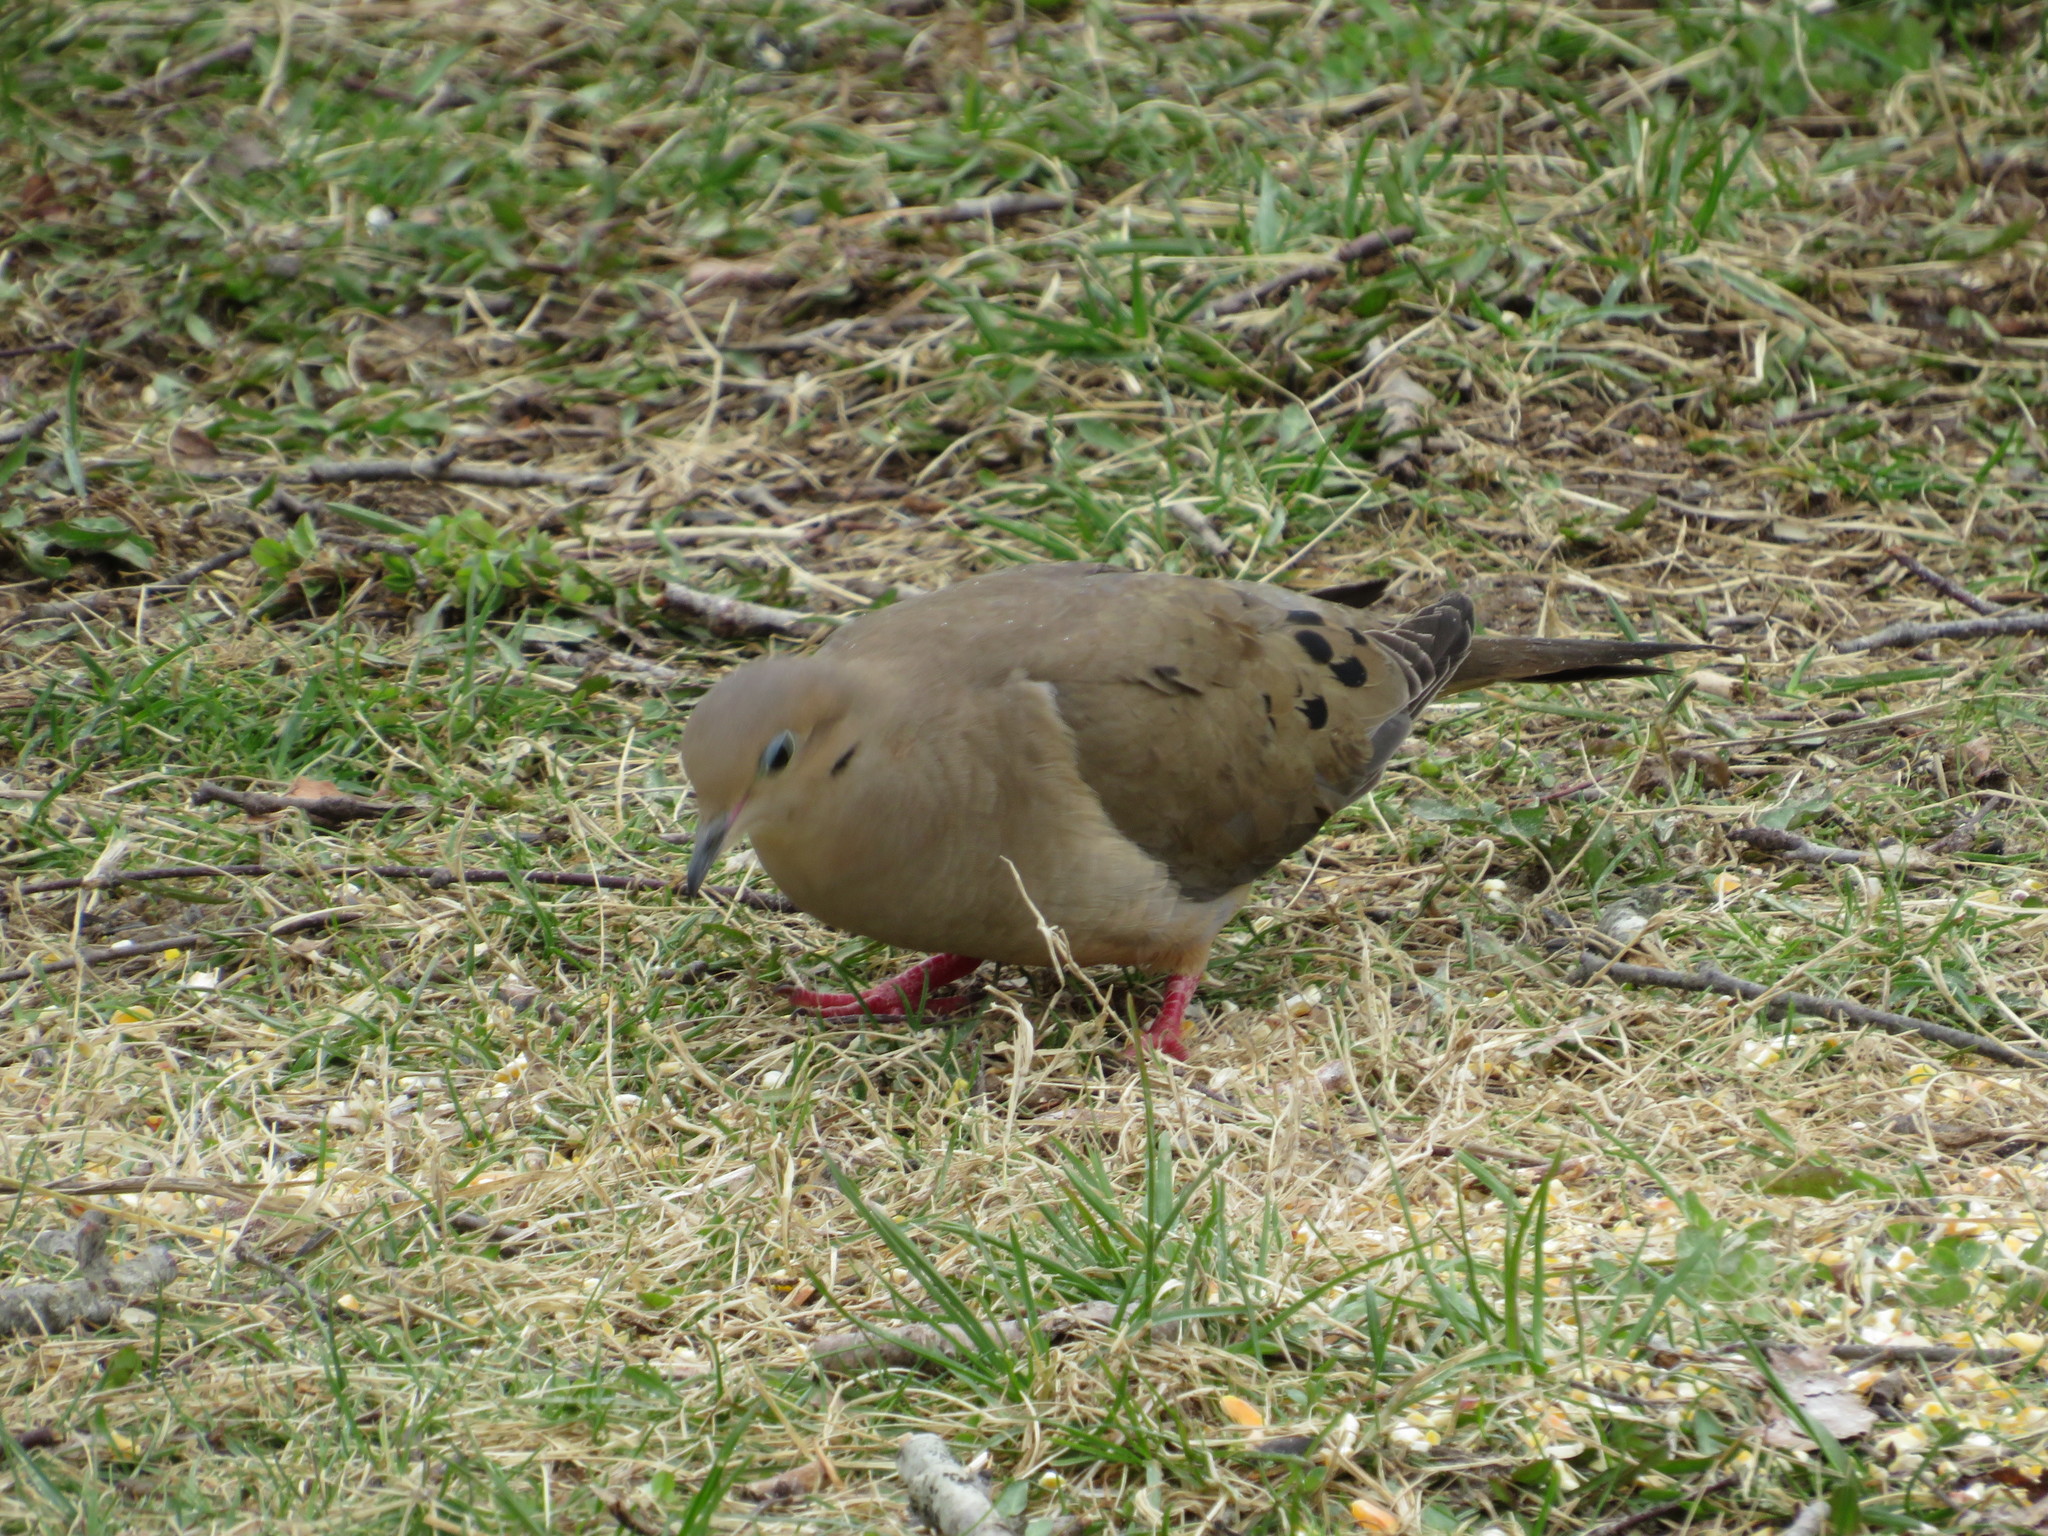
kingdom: Animalia
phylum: Chordata
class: Aves
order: Columbiformes
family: Columbidae
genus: Zenaida
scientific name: Zenaida macroura
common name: Mourning dove
